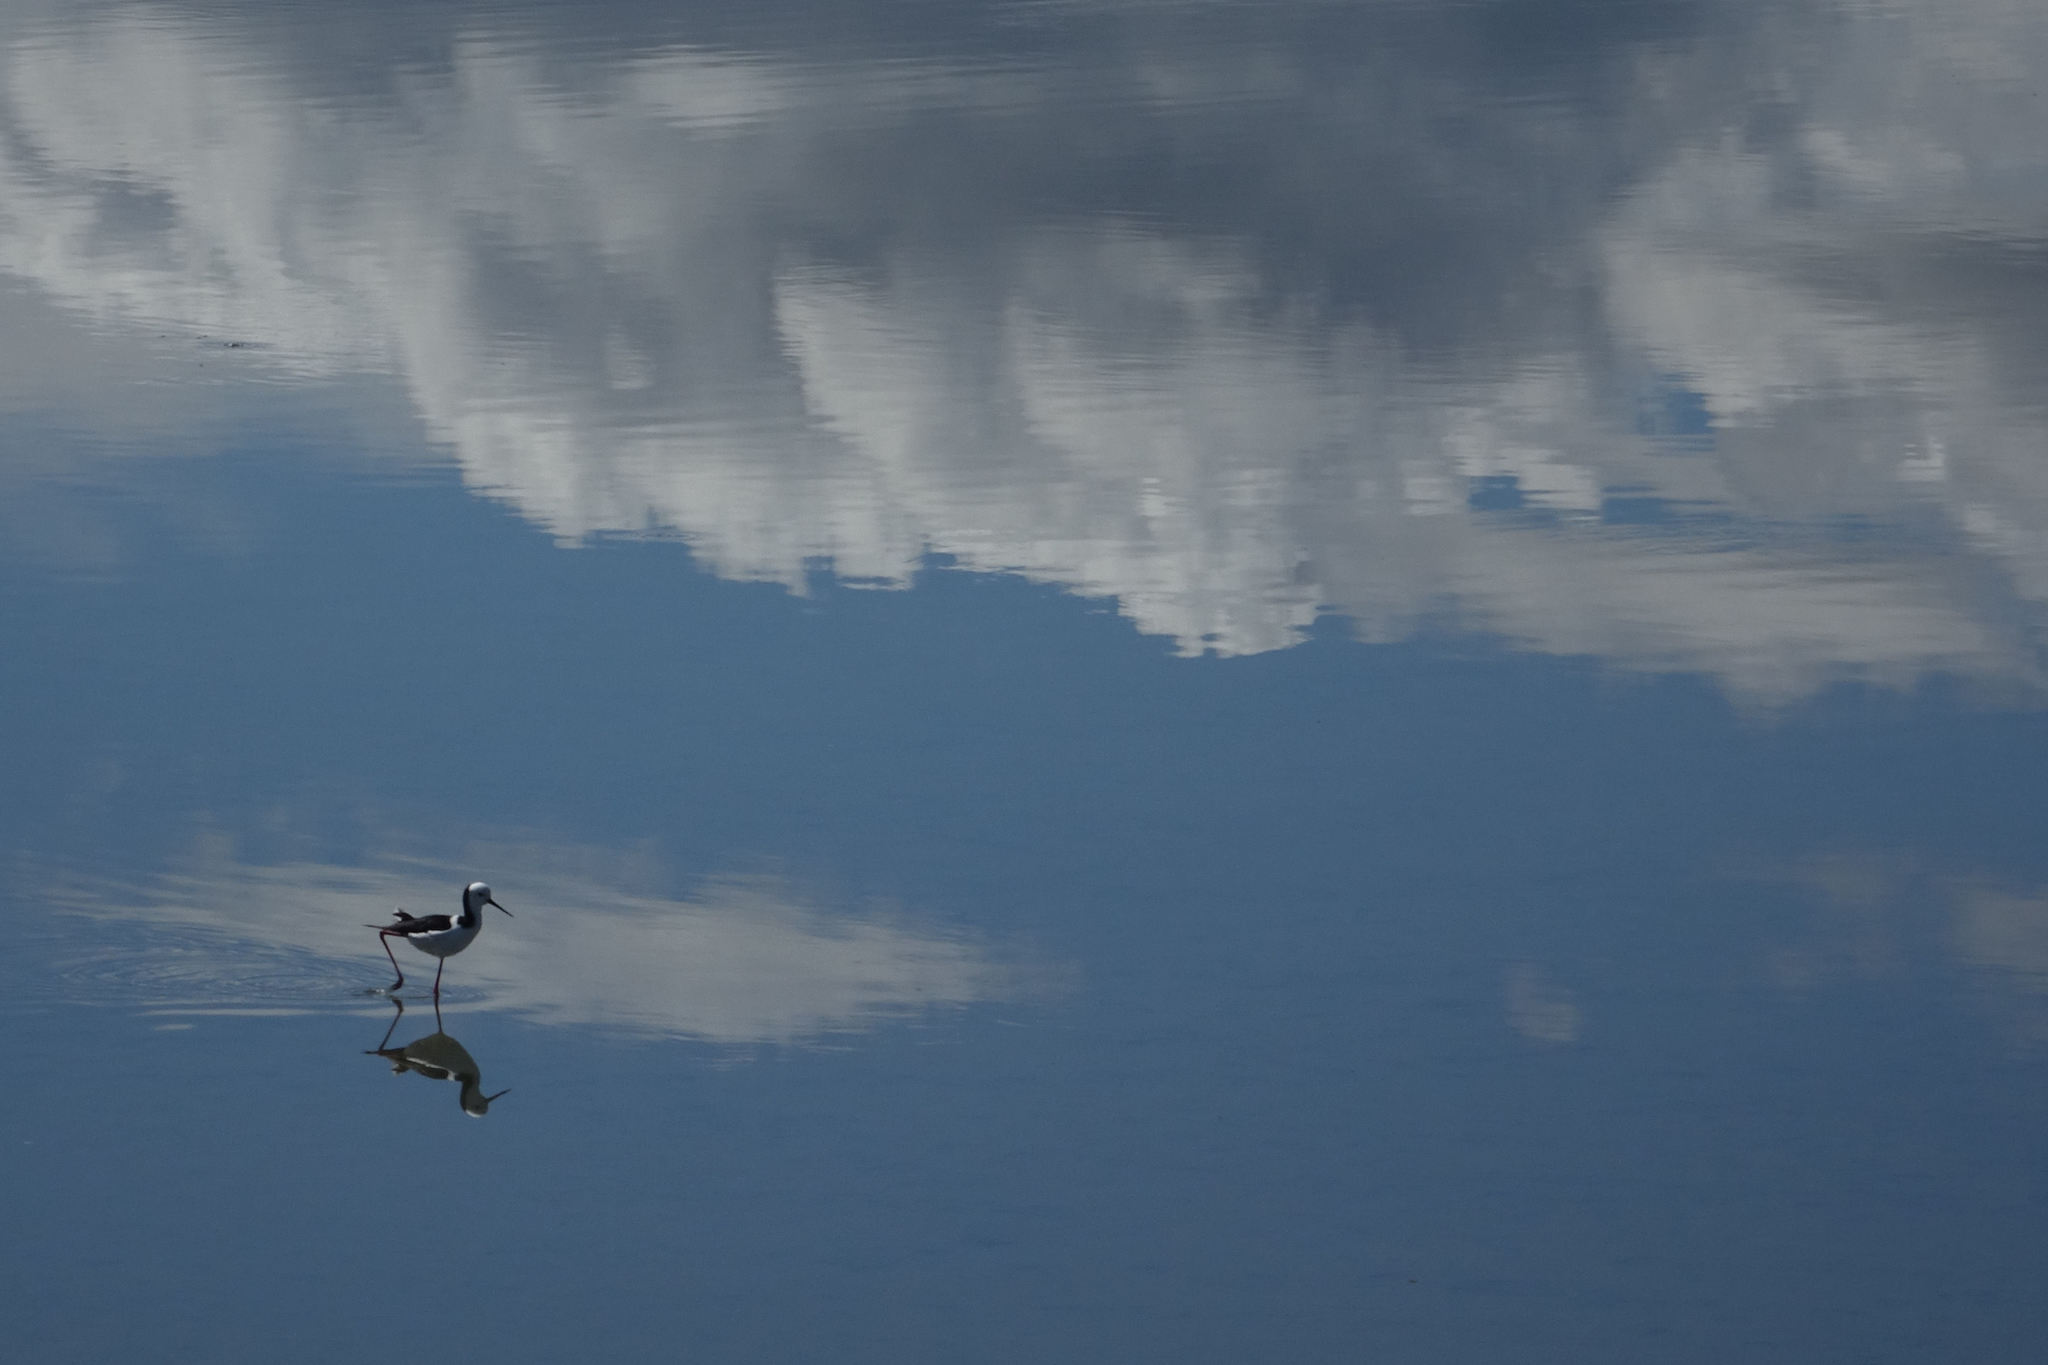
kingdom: Animalia
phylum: Chordata
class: Aves
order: Charadriiformes
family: Recurvirostridae
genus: Himantopus
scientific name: Himantopus leucocephalus
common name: White-headed stilt
